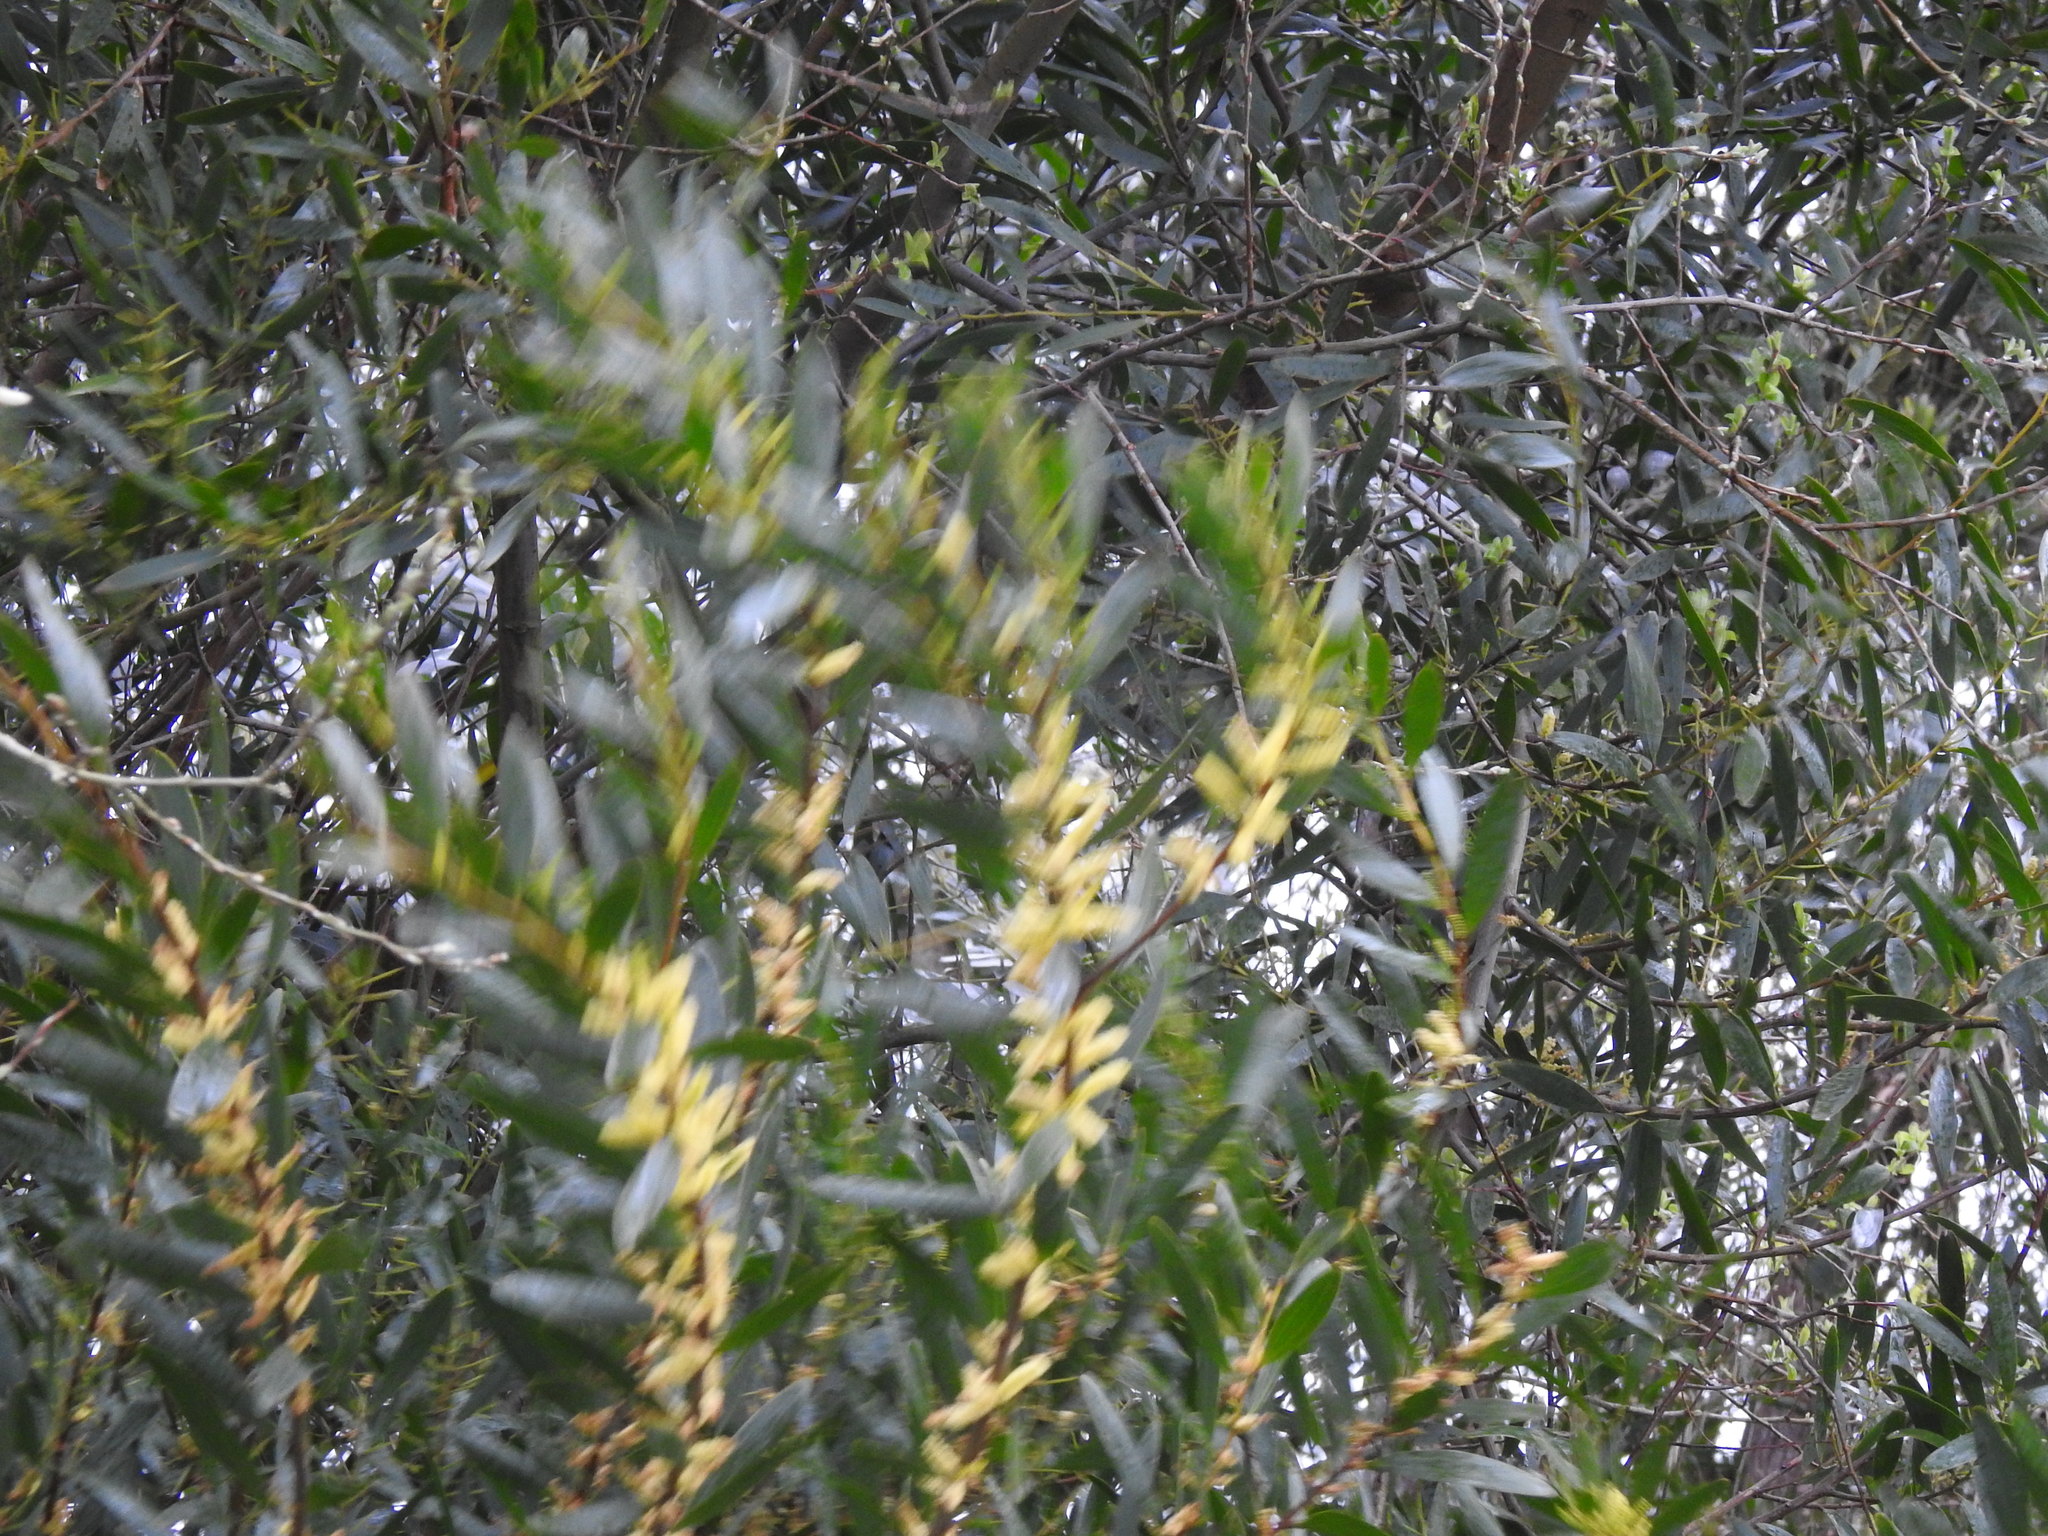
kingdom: Plantae
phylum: Tracheophyta
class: Magnoliopsida
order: Fabales
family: Fabaceae
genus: Acacia
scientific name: Acacia longifolia
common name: Sydney golden wattle
